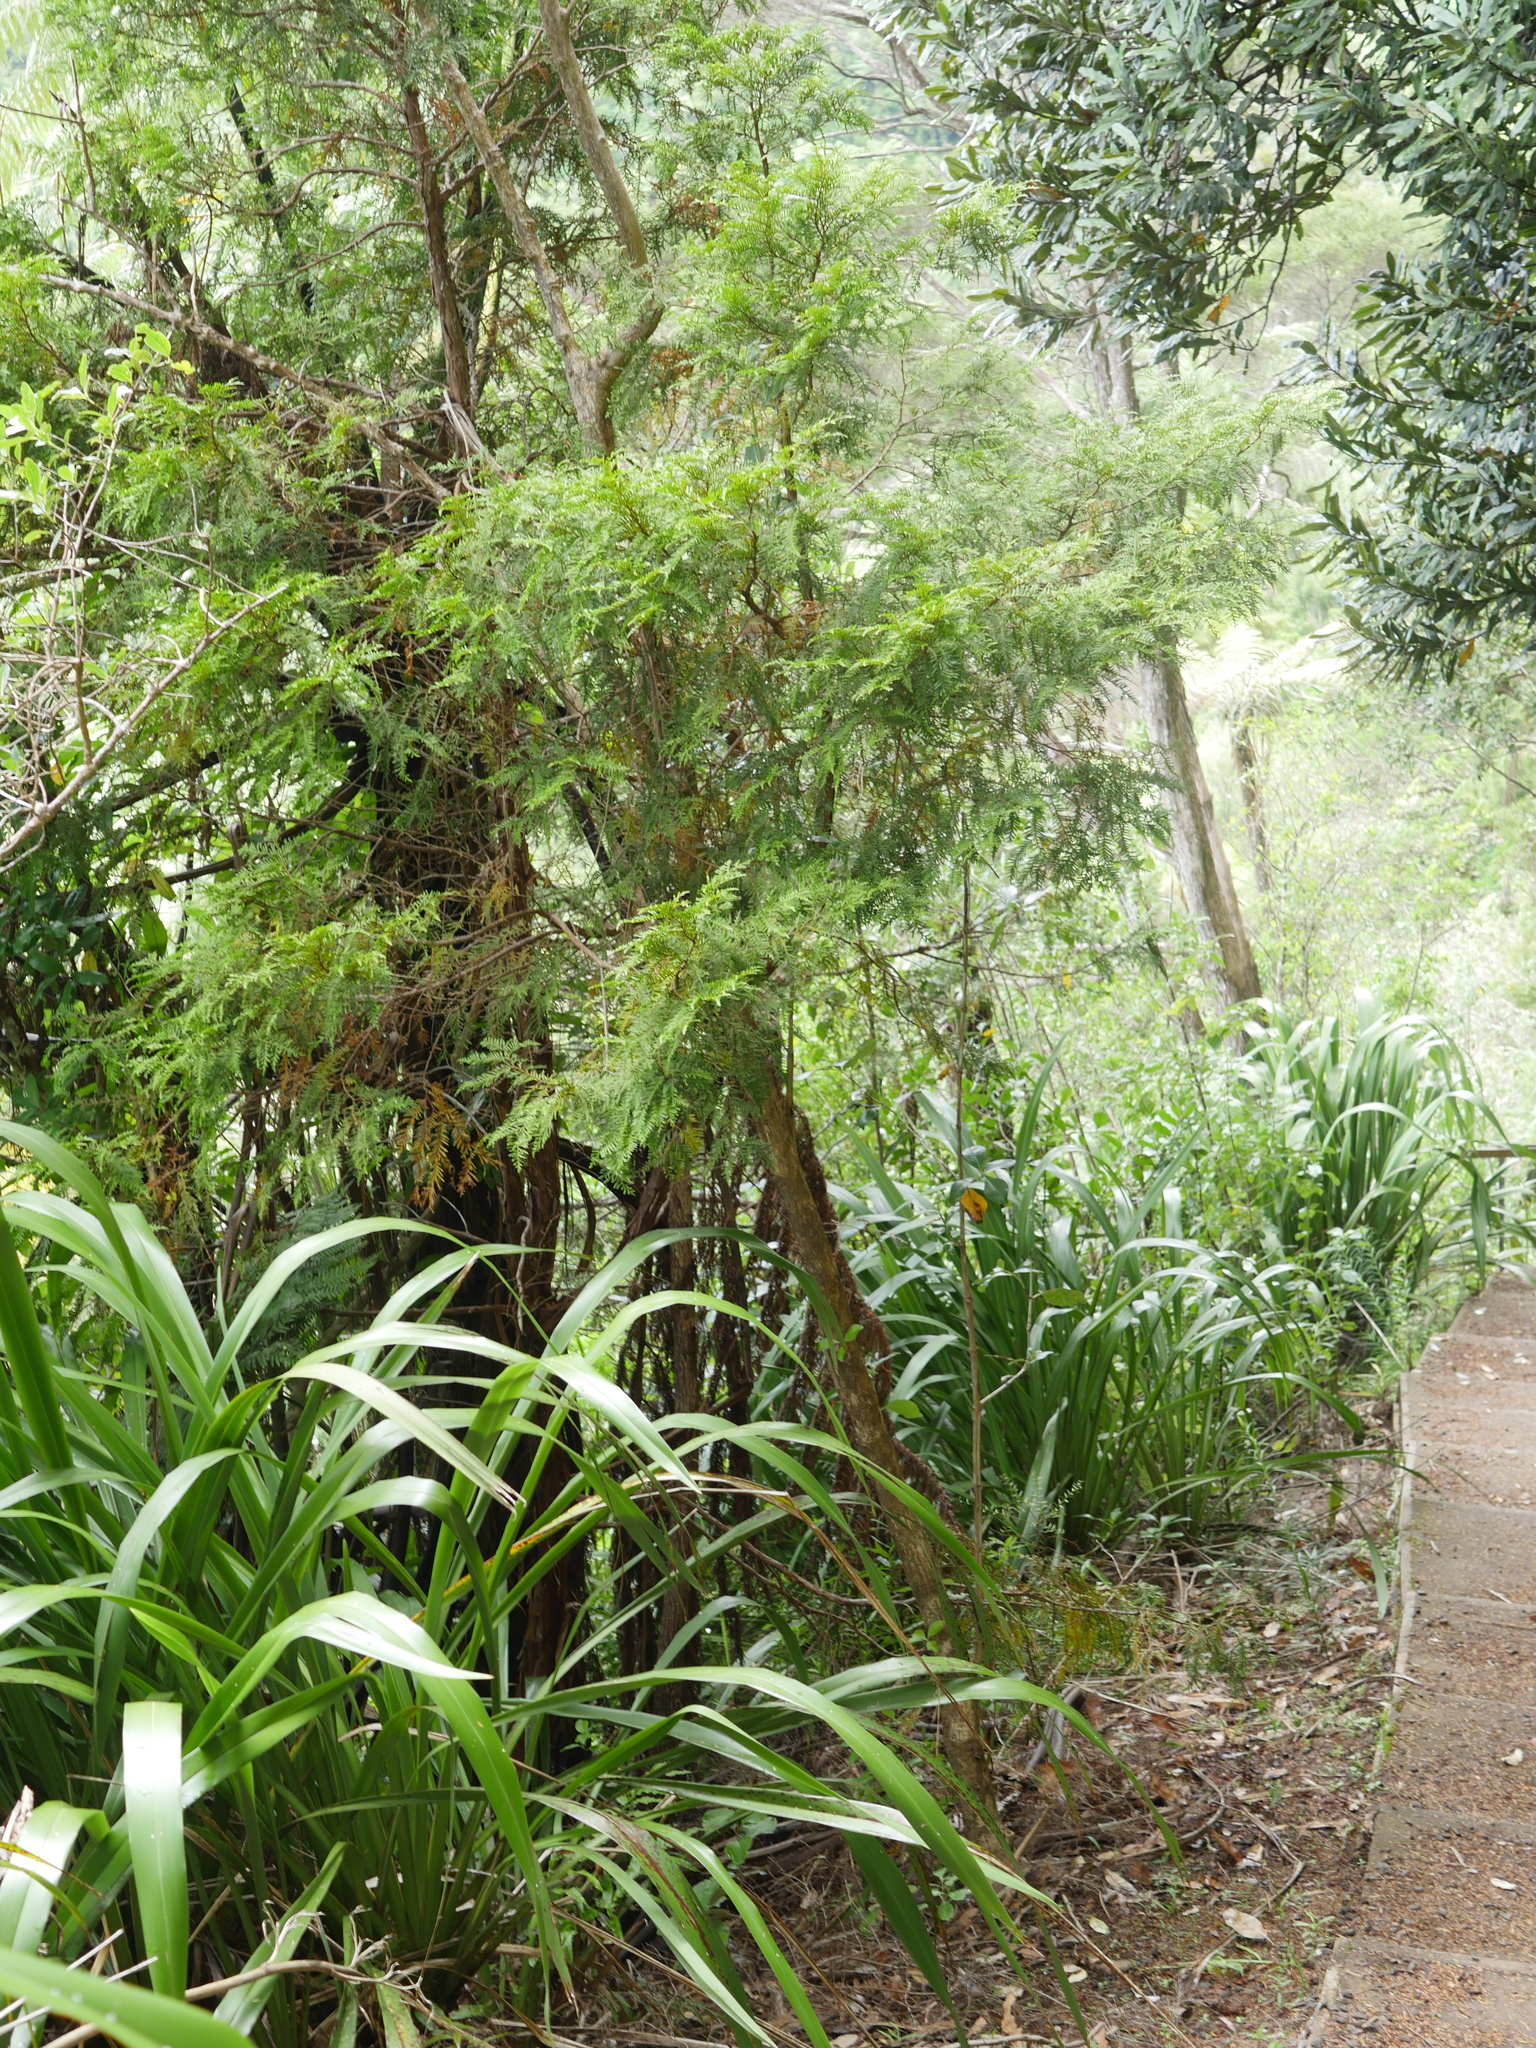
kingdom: Plantae
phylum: Tracheophyta
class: Pinopsida
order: Pinales
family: Cupressaceae
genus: Libocedrus
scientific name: Libocedrus plumosa
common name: New zealand cedar
